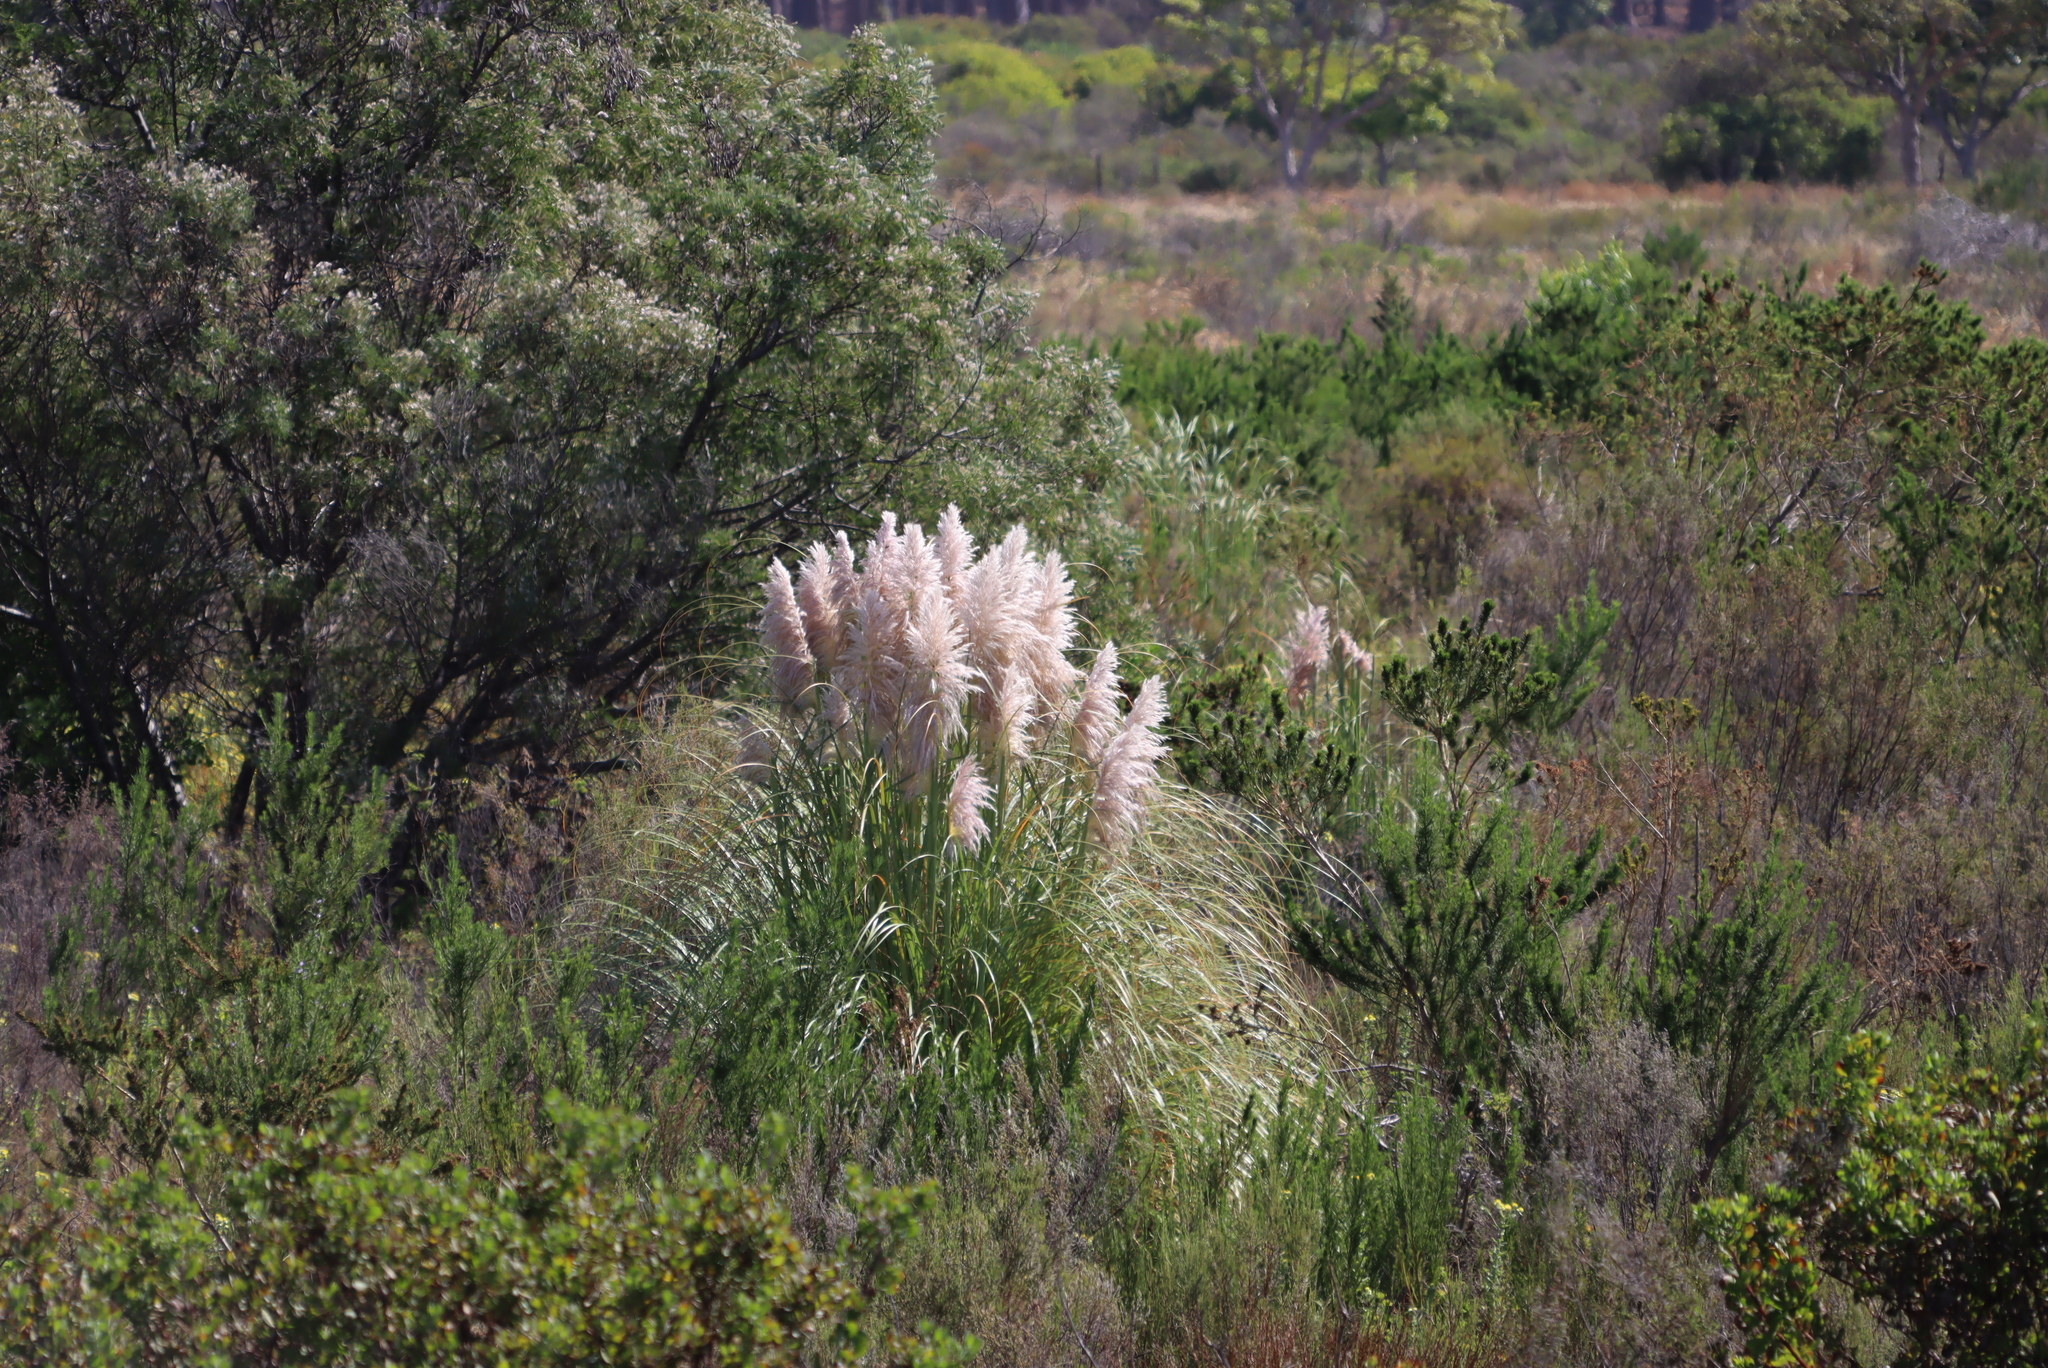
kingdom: Plantae
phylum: Tracheophyta
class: Liliopsida
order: Poales
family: Poaceae
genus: Cortaderia
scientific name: Cortaderia selloana
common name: Uruguayan pampas grass
